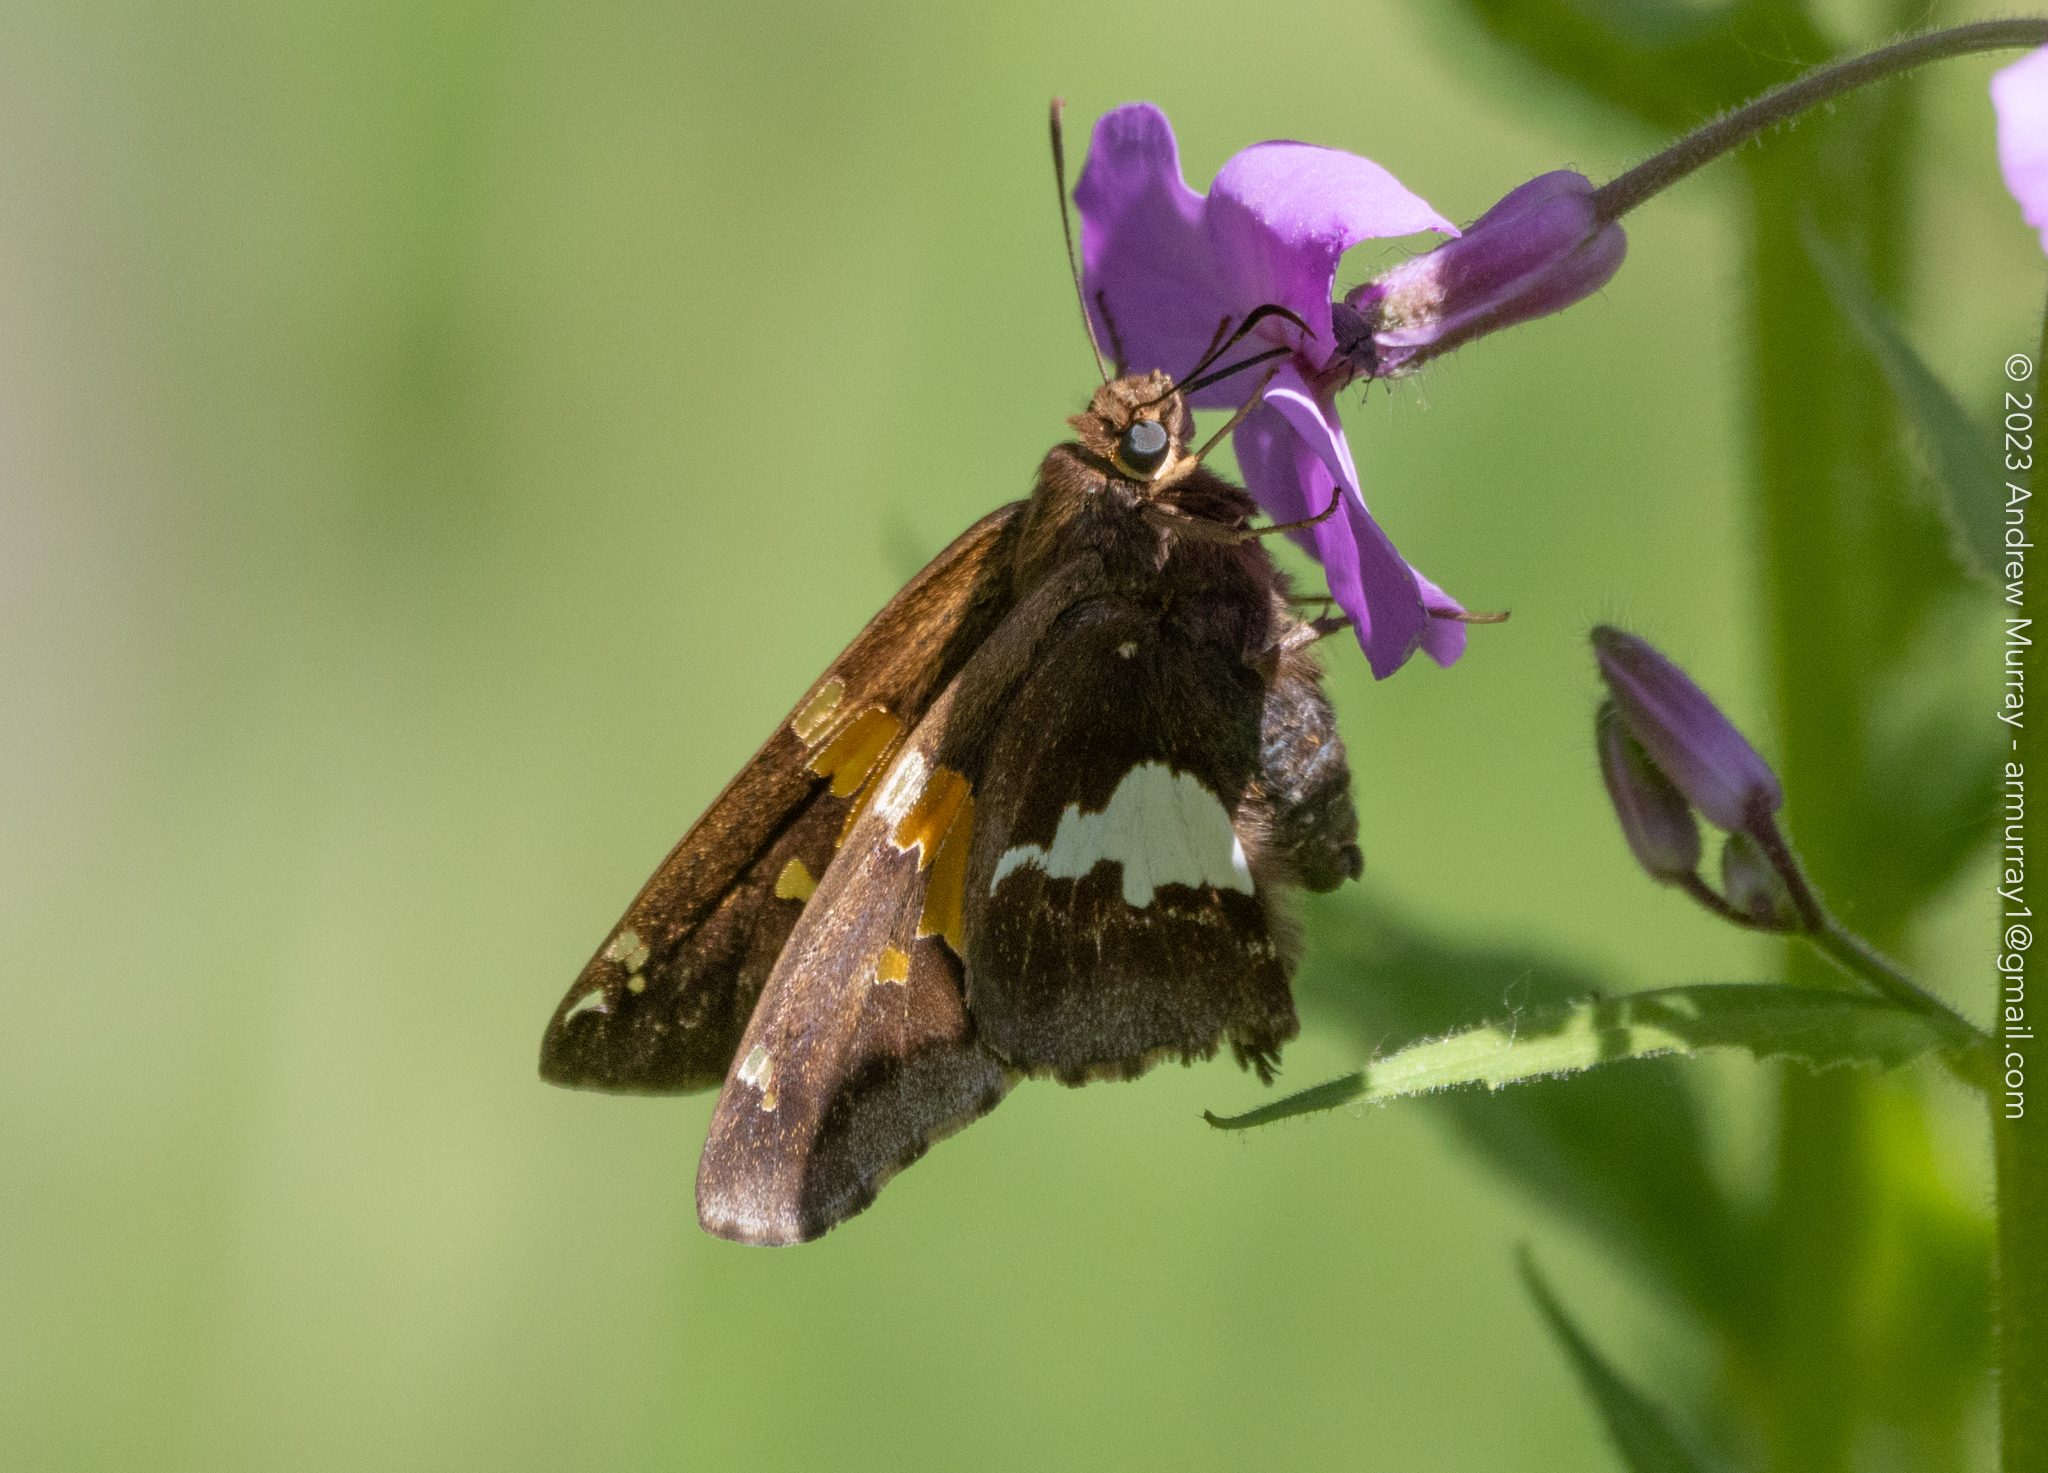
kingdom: Animalia
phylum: Arthropoda
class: Insecta
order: Lepidoptera
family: Hesperiidae
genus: Epargyreus
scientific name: Epargyreus clarus
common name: Silver-spotted skipper
